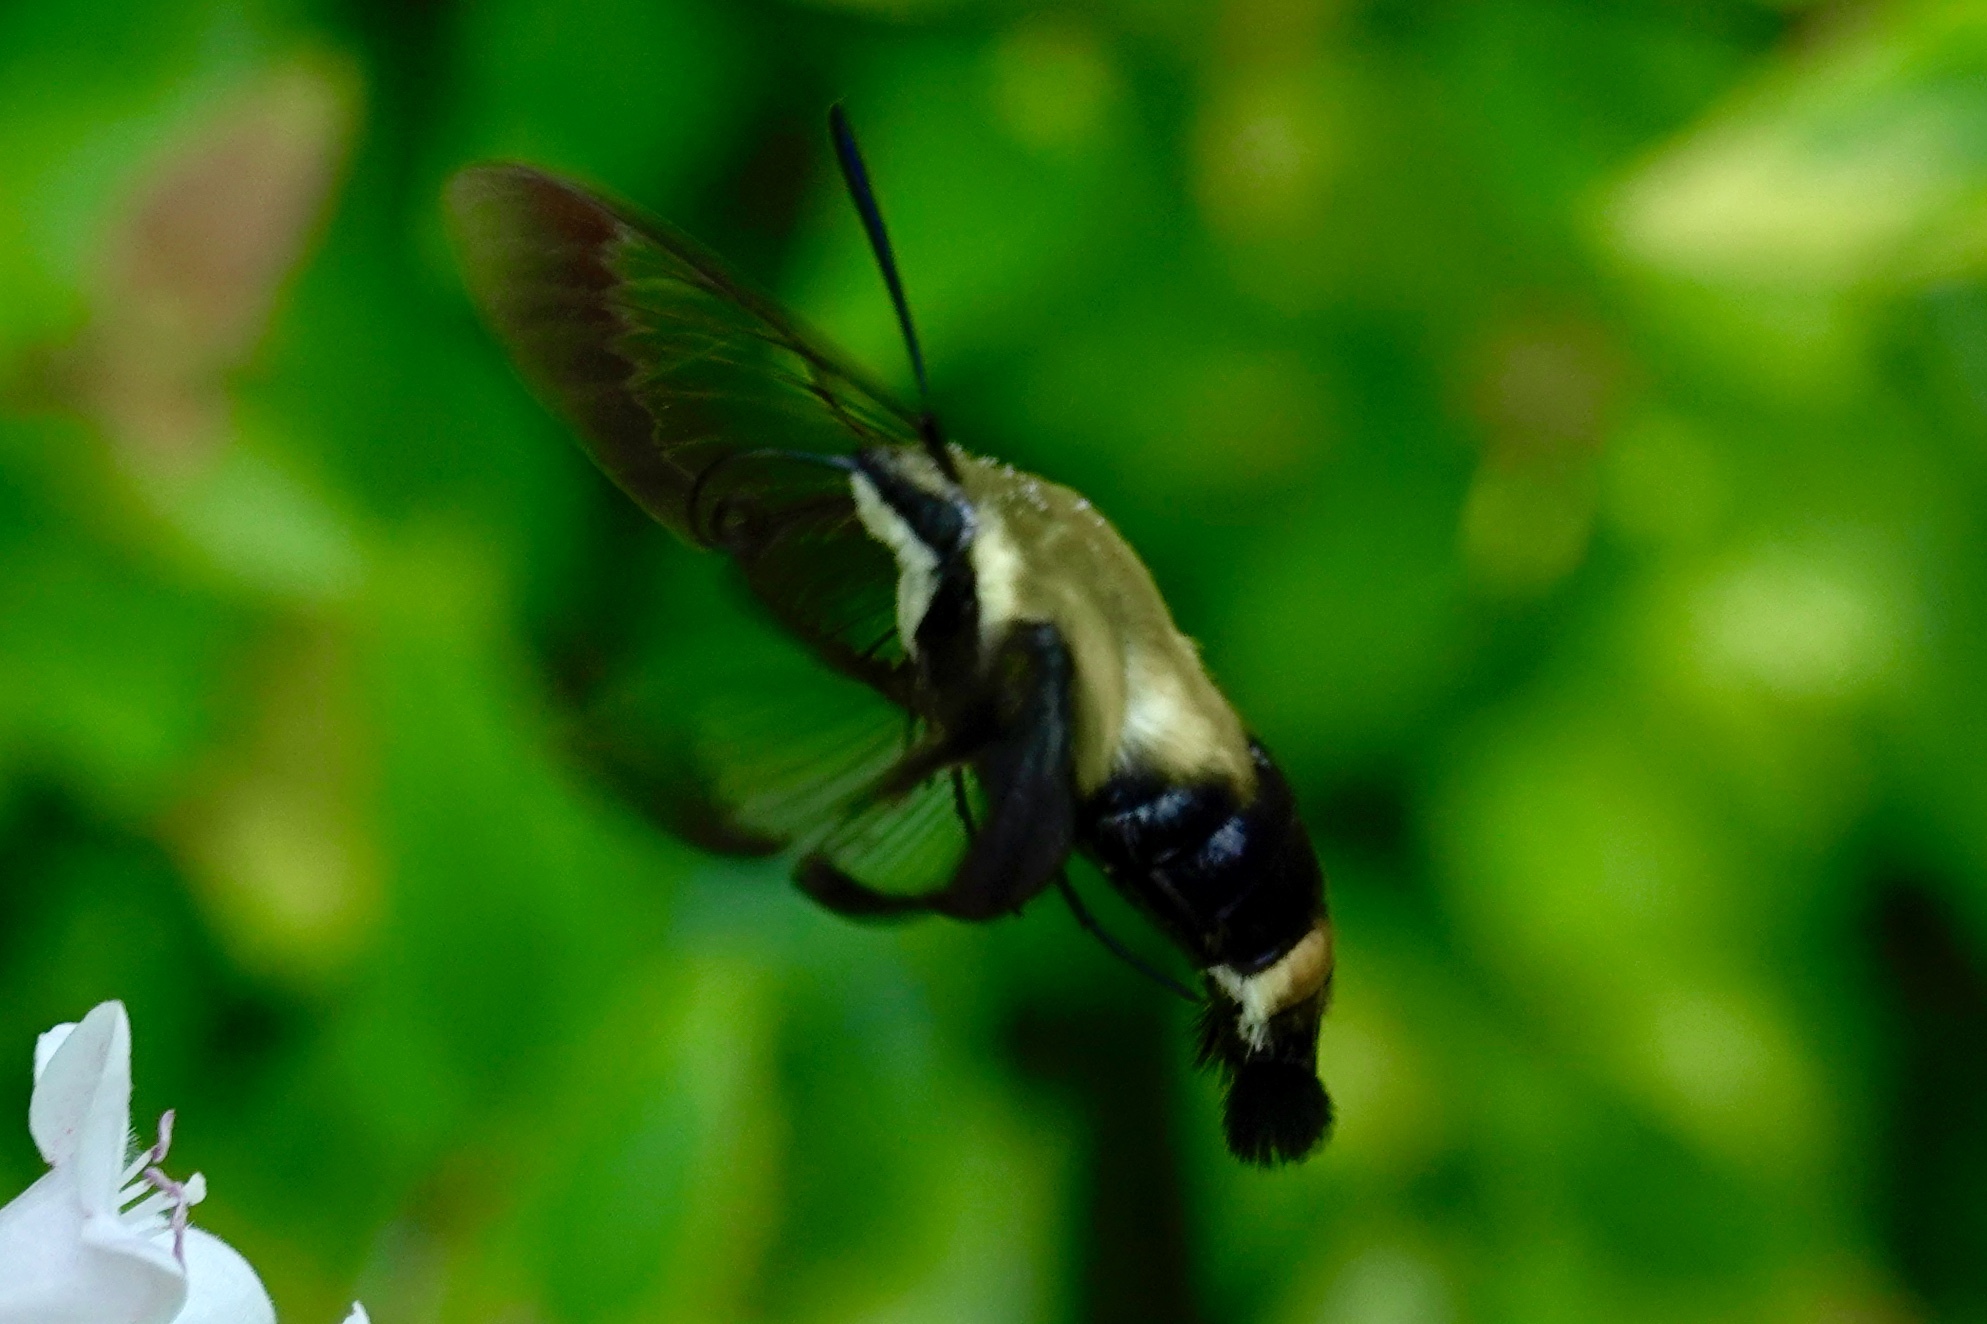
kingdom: Animalia
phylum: Arthropoda
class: Insecta
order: Lepidoptera
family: Sphingidae
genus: Hemaris
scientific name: Hemaris diffinis
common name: Bumblebee moth
